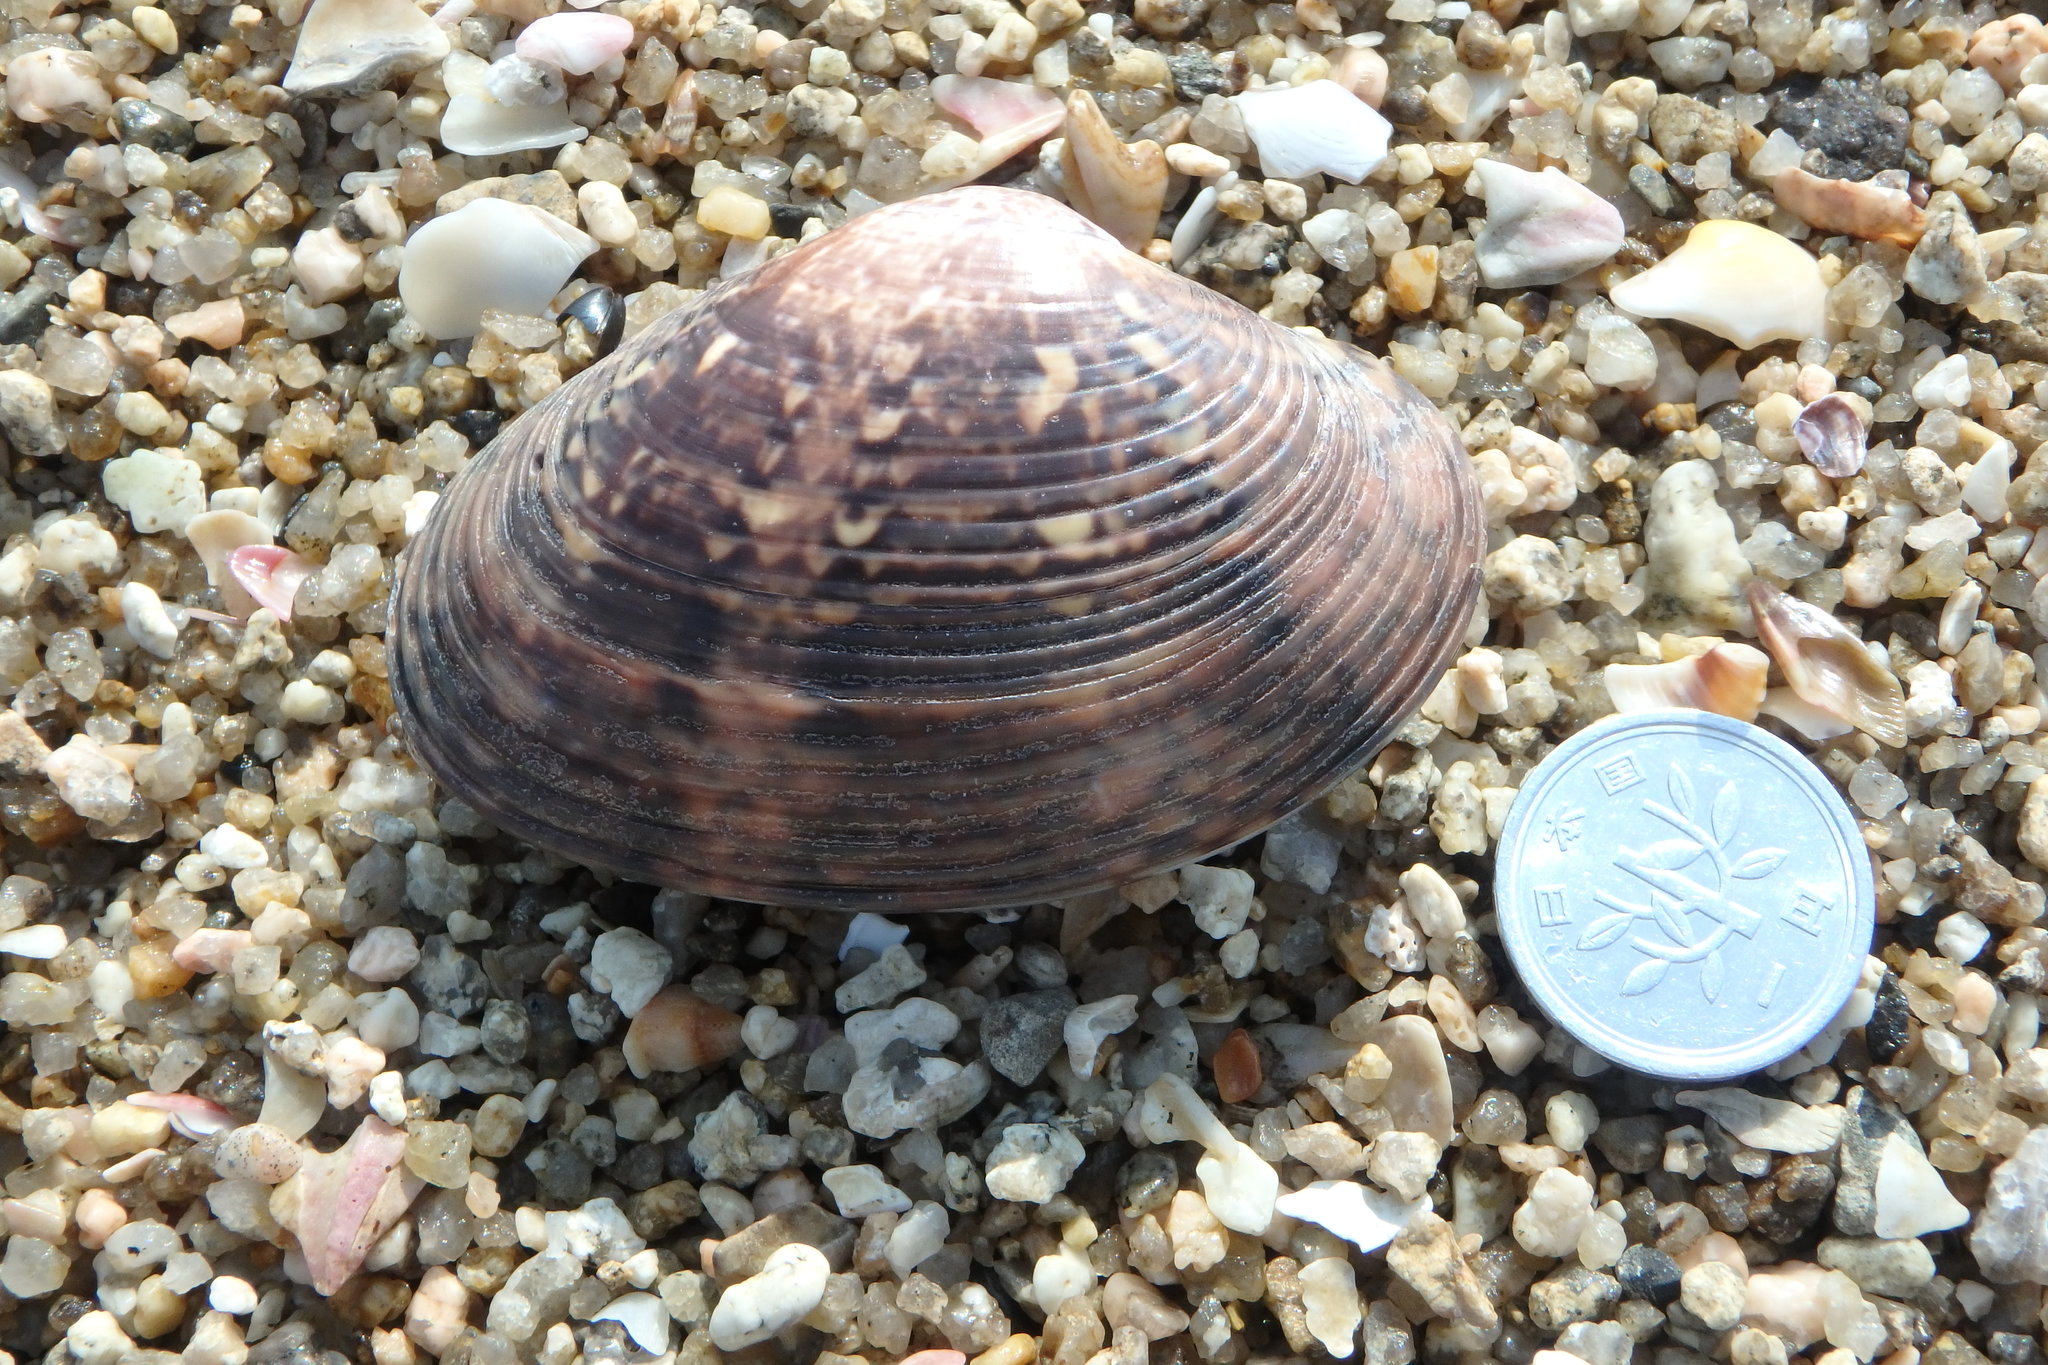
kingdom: Animalia
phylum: Mollusca
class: Bivalvia
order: Venerida
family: Veneridae
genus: Paphia
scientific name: Paphia vernicosa
